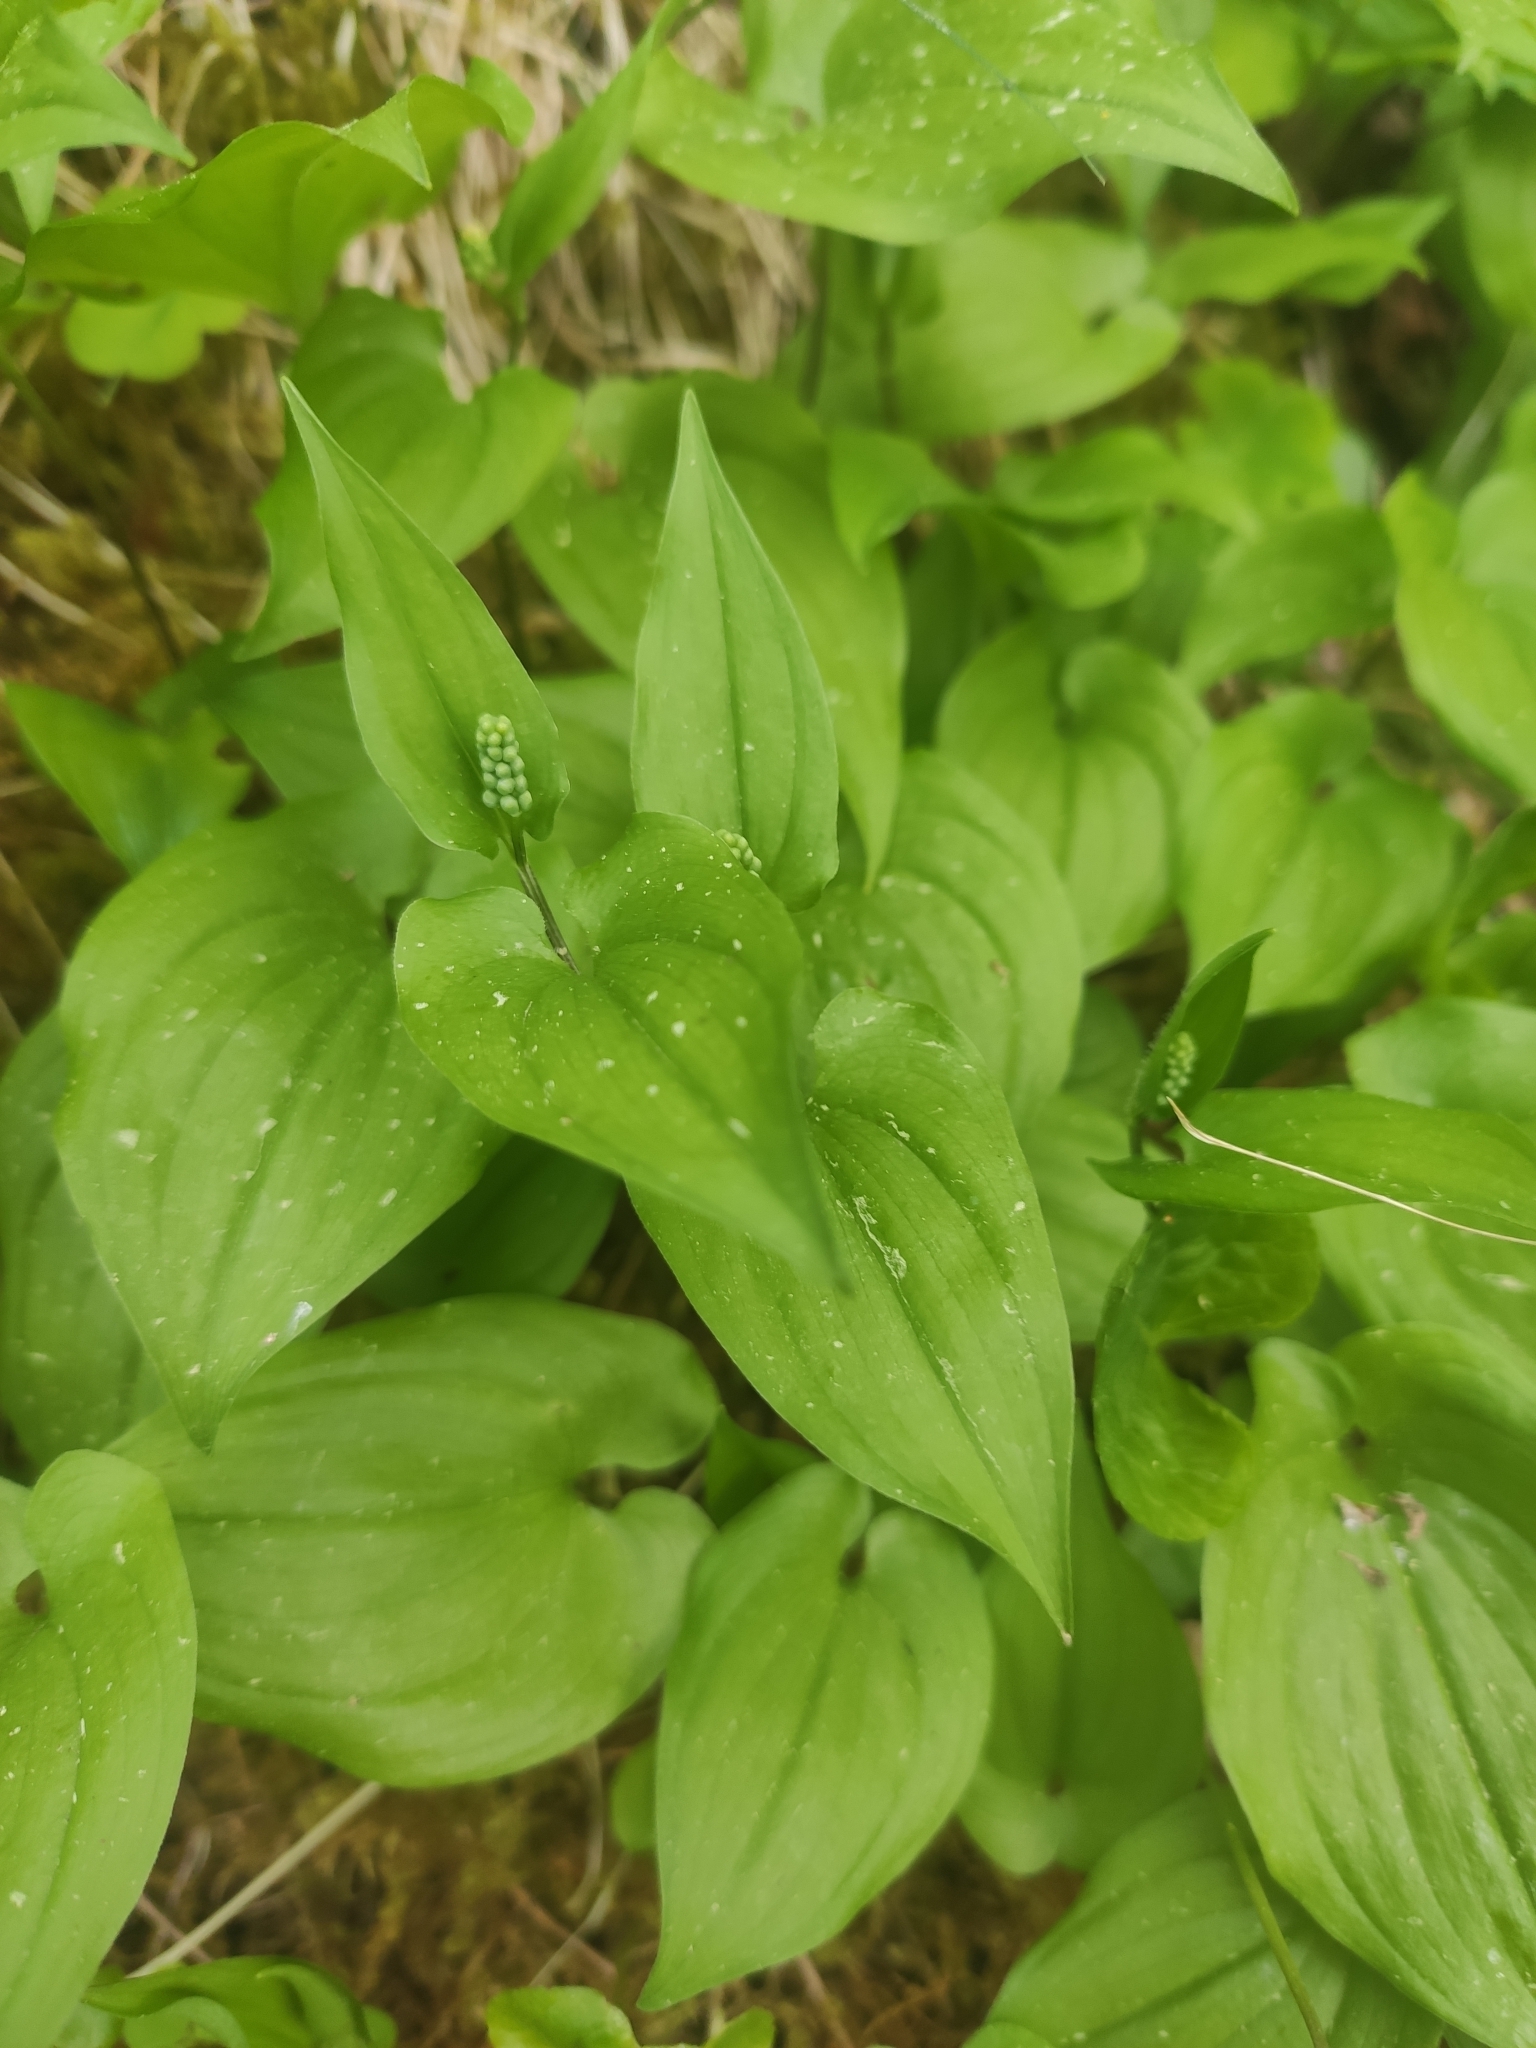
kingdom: Plantae
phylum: Tracheophyta
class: Liliopsida
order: Asparagales
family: Asparagaceae
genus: Maianthemum
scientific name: Maianthemum bifolium
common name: May lily
